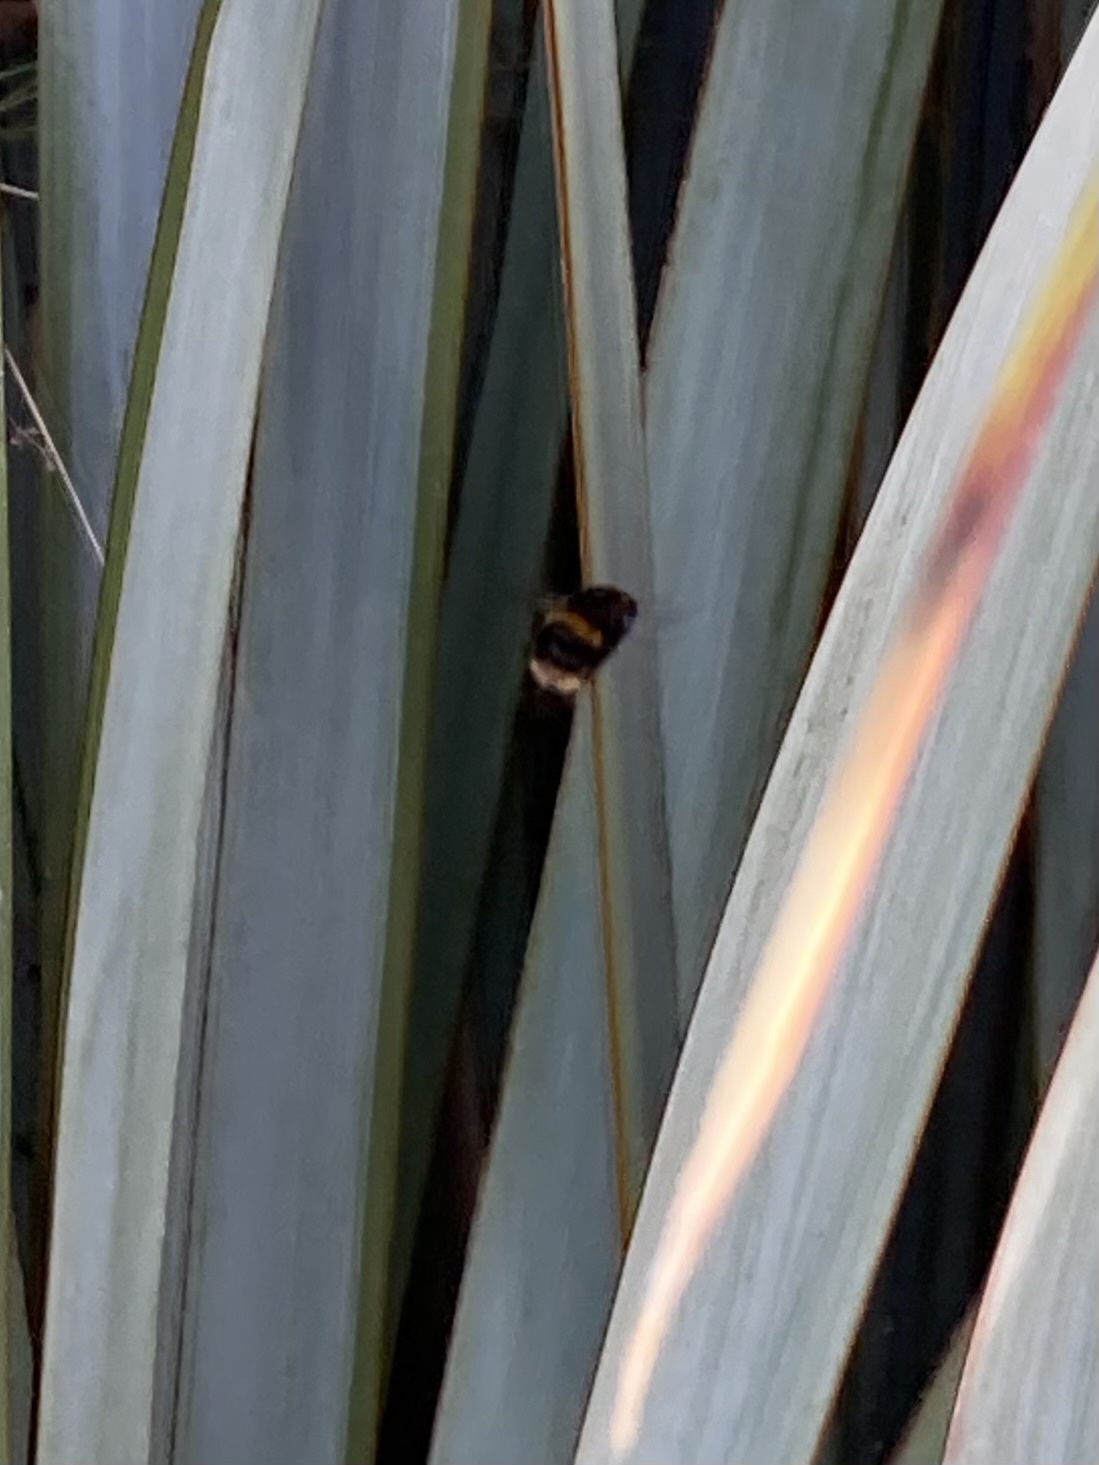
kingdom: Animalia
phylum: Arthropoda
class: Insecta
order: Hymenoptera
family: Apidae
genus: Bombus
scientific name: Bombus terrestris
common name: Buff-tailed bumblebee
